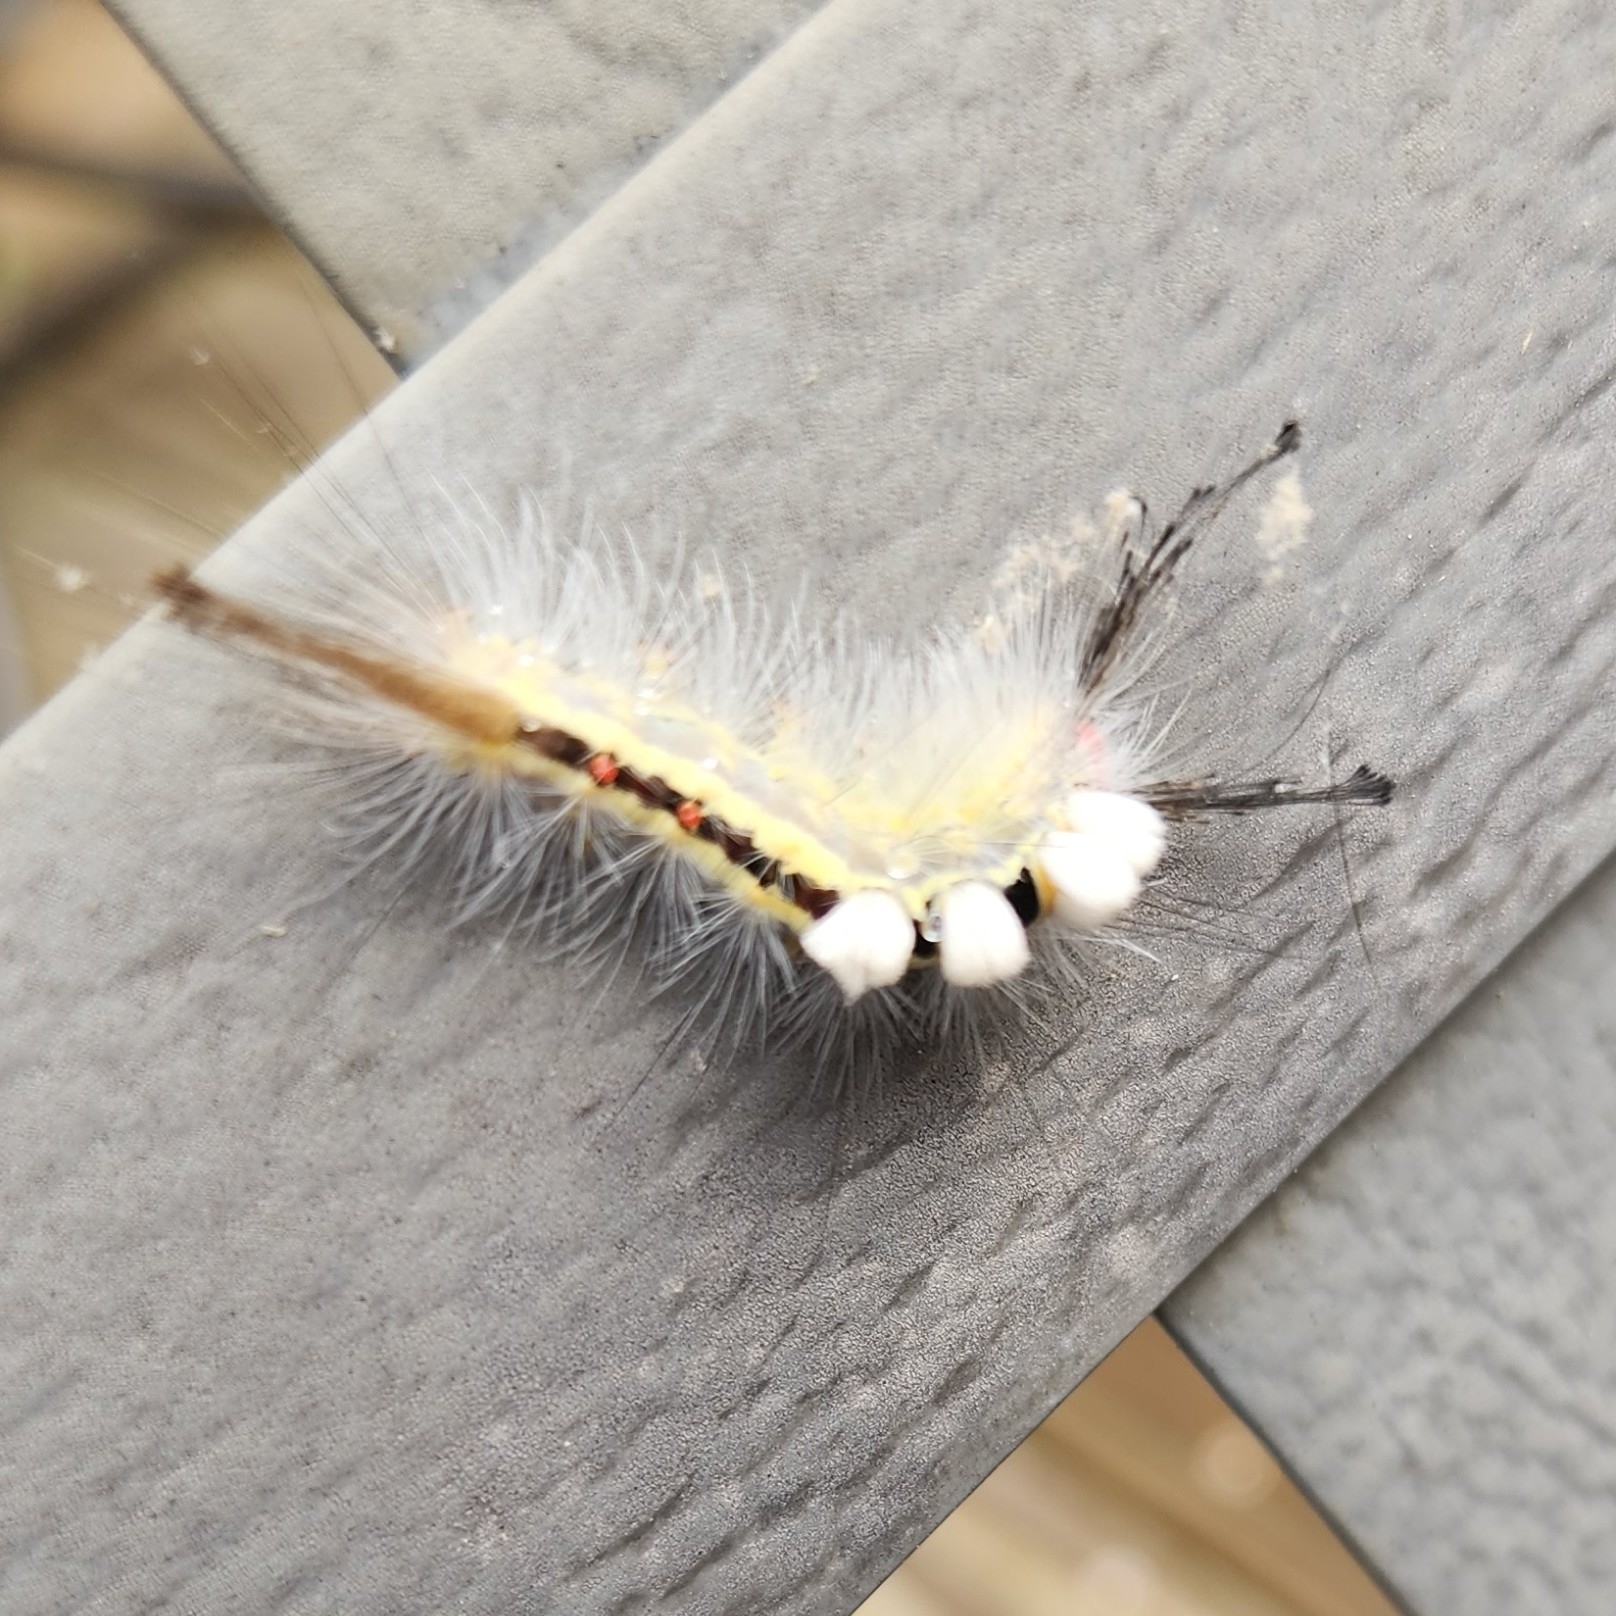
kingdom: Animalia
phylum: Arthropoda
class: Insecta
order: Lepidoptera
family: Erebidae
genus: Orgyia
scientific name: Orgyia leucostigma
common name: White-marked tussock moth
